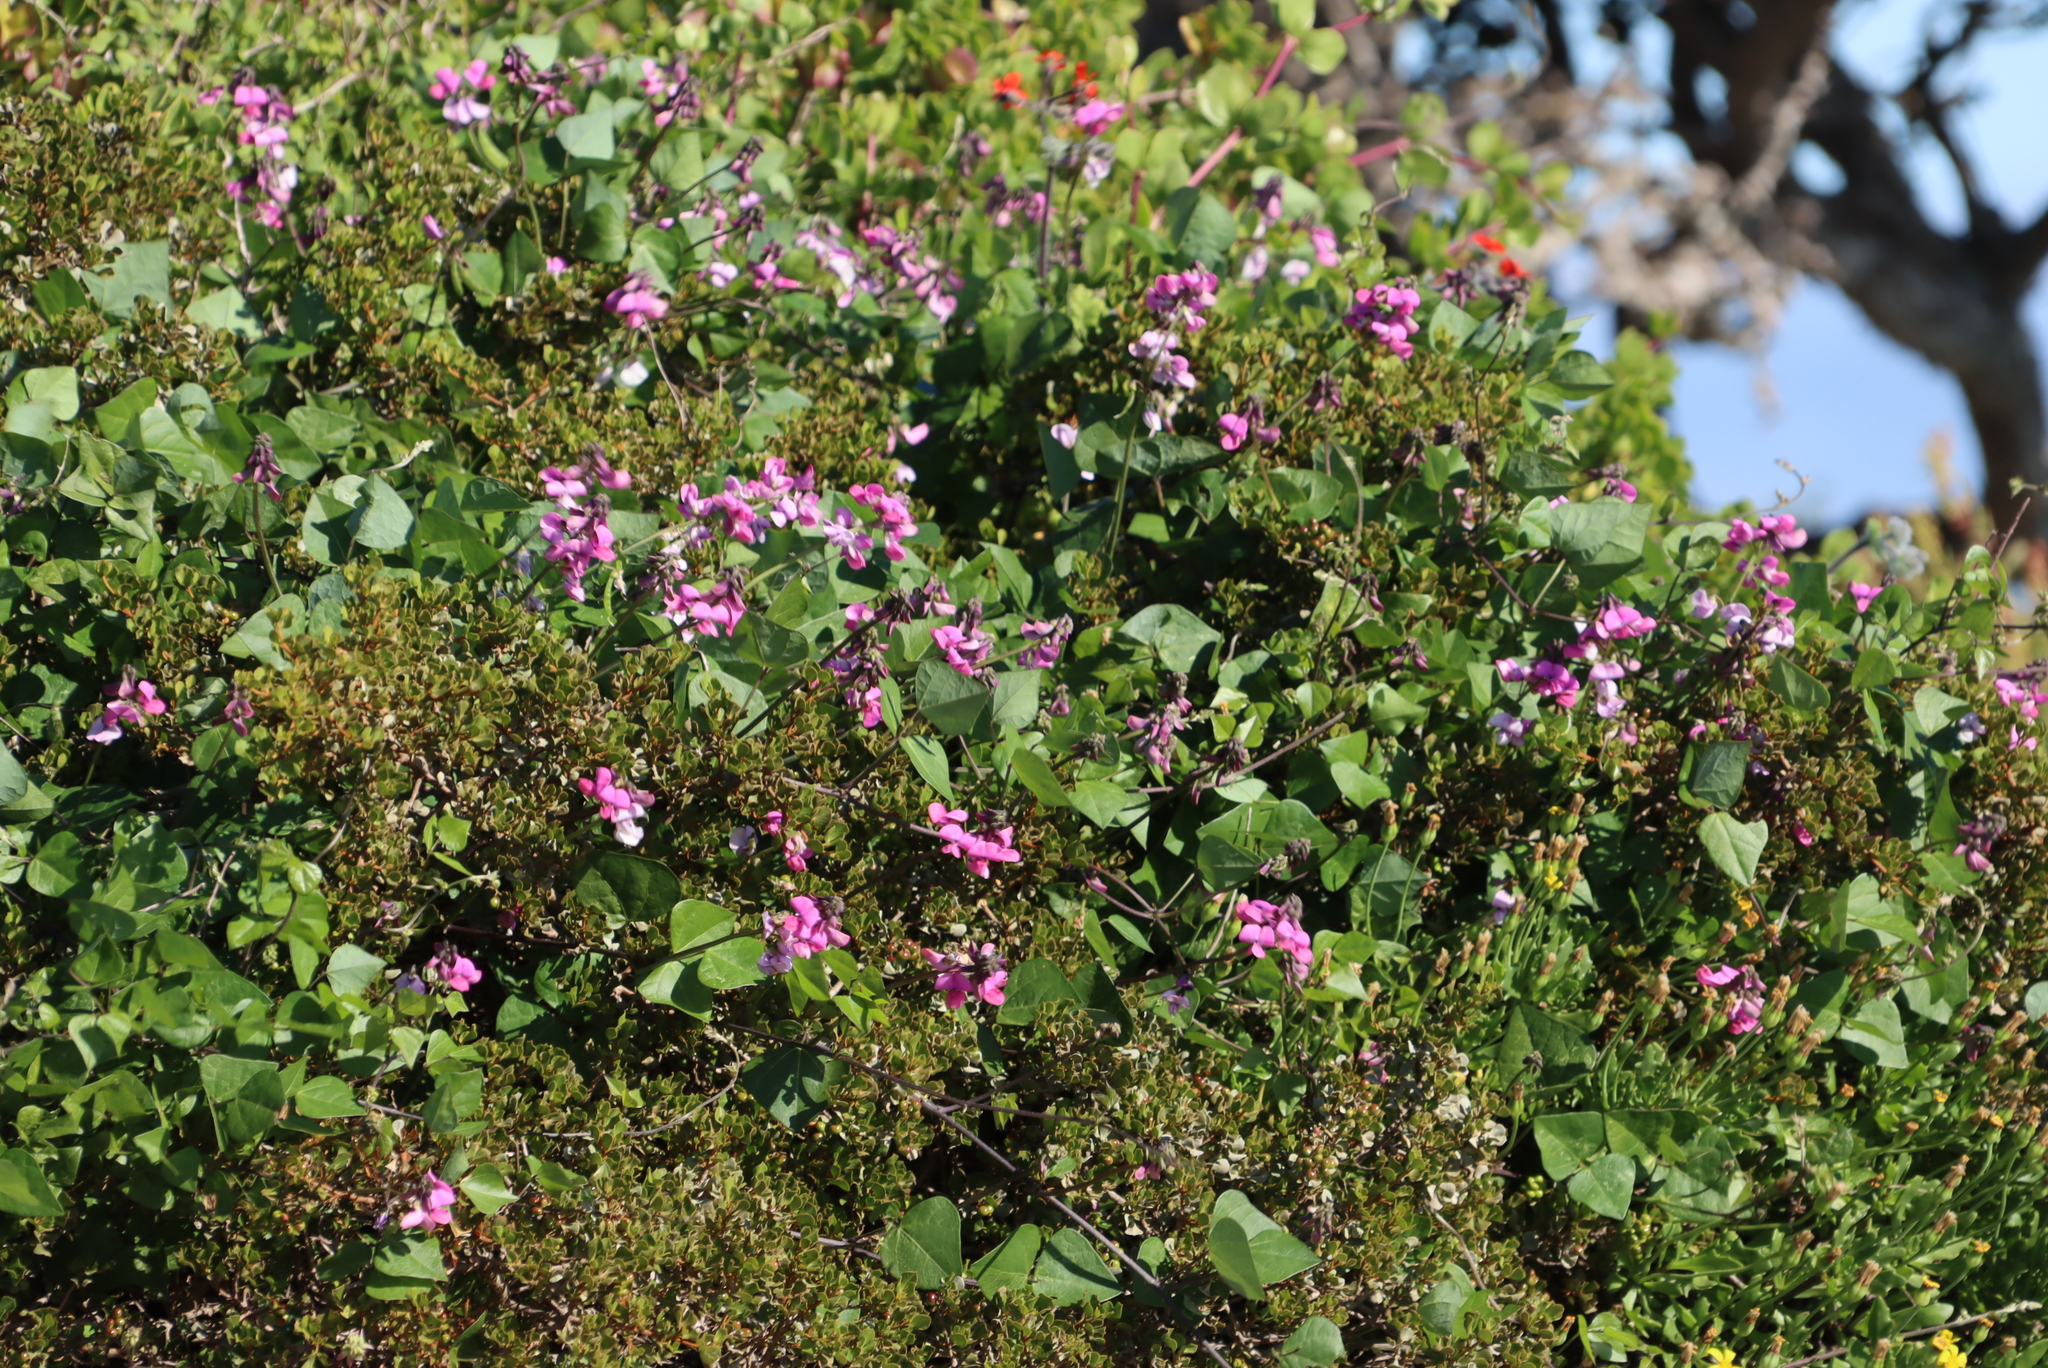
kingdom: Plantae
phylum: Tracheophyta
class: Magnoliopsida
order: Fabales
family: Fabaceae
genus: Dipogon
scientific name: Dipogon lignosus
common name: Okie bean
